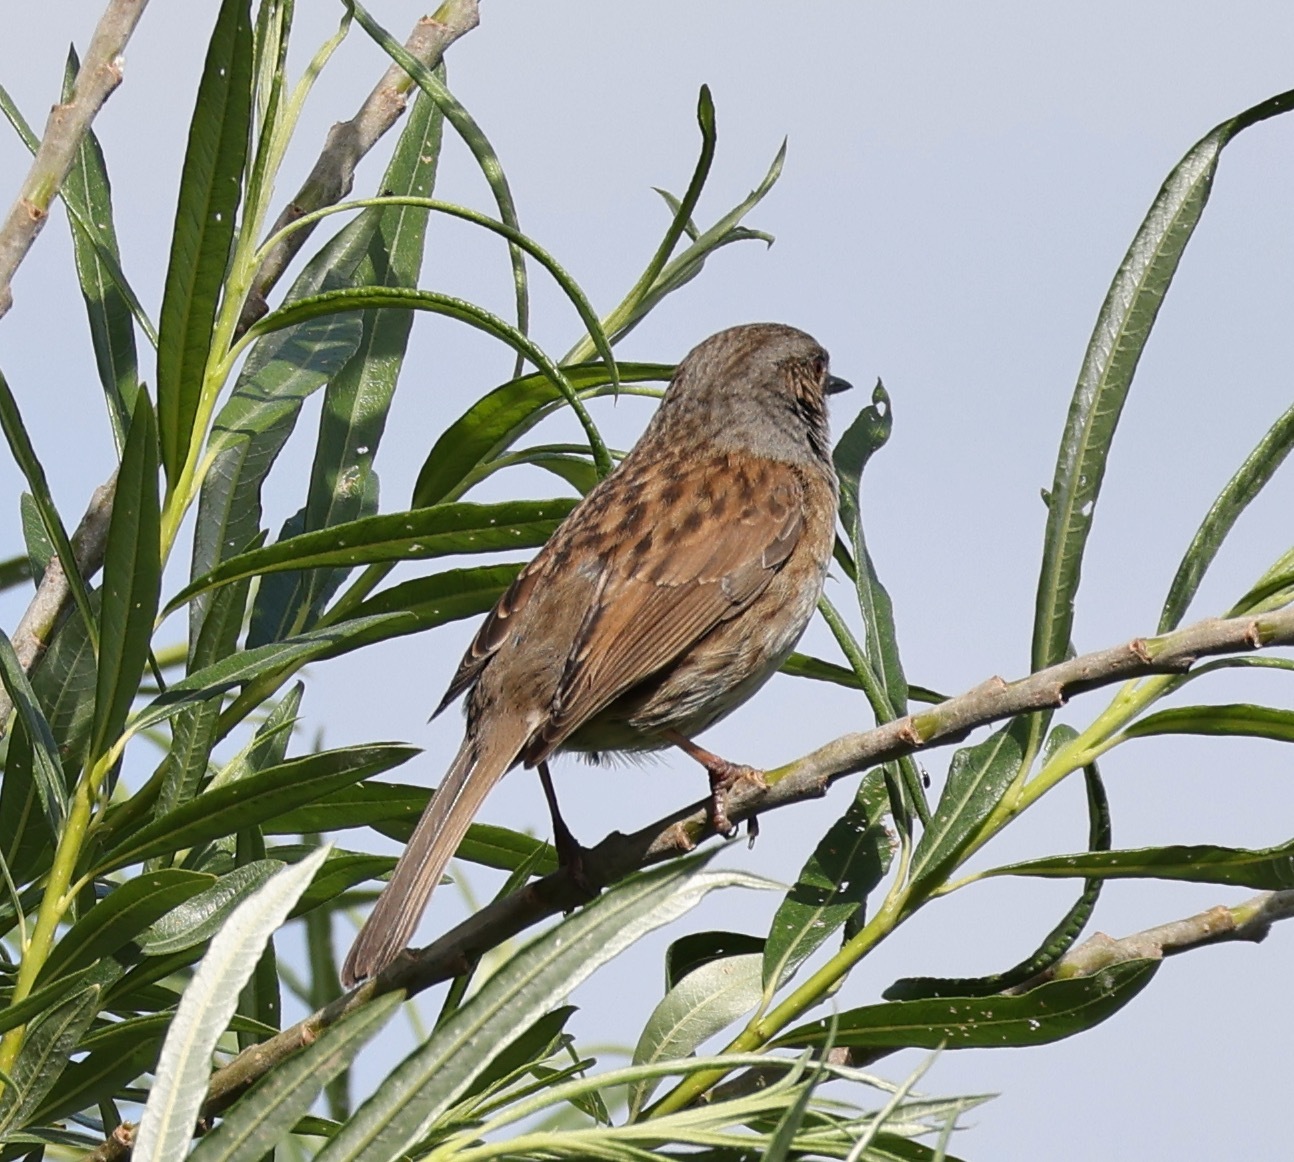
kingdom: Animalia
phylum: Chordata
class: Aves
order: Passeriformes
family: Prunellidae
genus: Prunella
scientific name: Prunella modularis
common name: Dunnock
